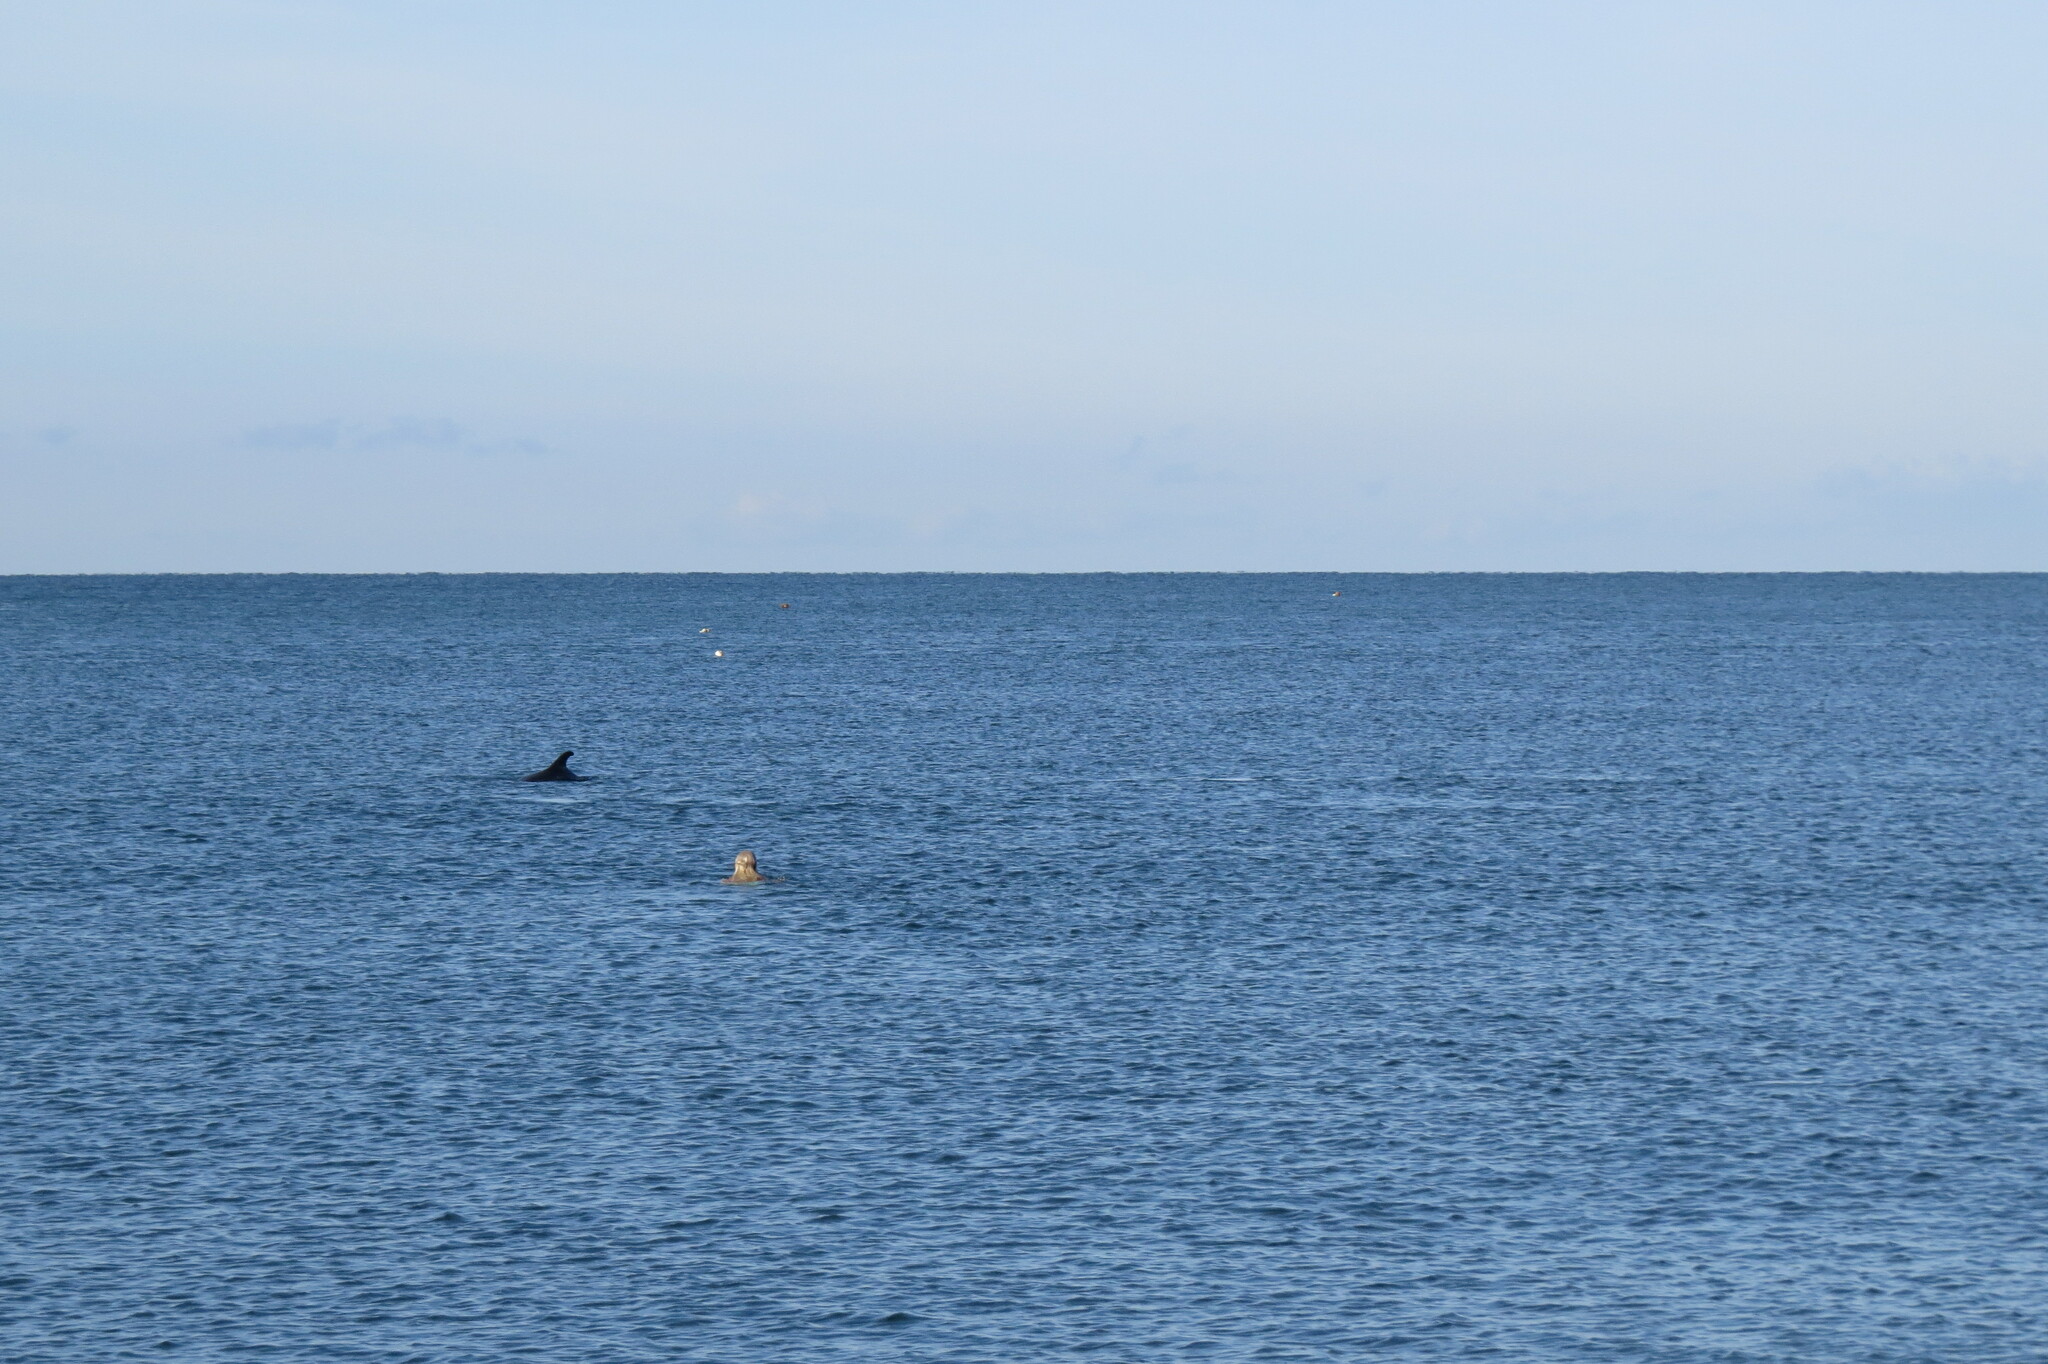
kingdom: Animalia
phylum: Chordata
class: Mammalia
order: Cetacea
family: Delphinidae
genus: Tursiops
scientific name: Tursiops truncatus
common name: Bottlenose dolphin
